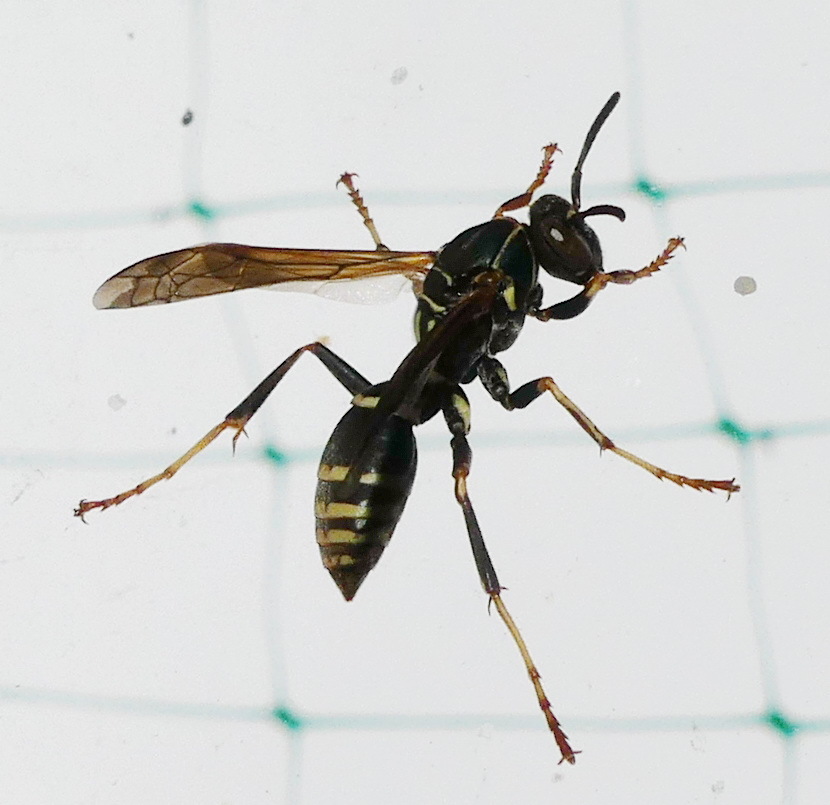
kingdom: Animalia
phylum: Arthropoda
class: Insecta
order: Hymenoptera
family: Eumenidae
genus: Polistes
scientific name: Polistes fuscatus
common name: Dark paper wasp
